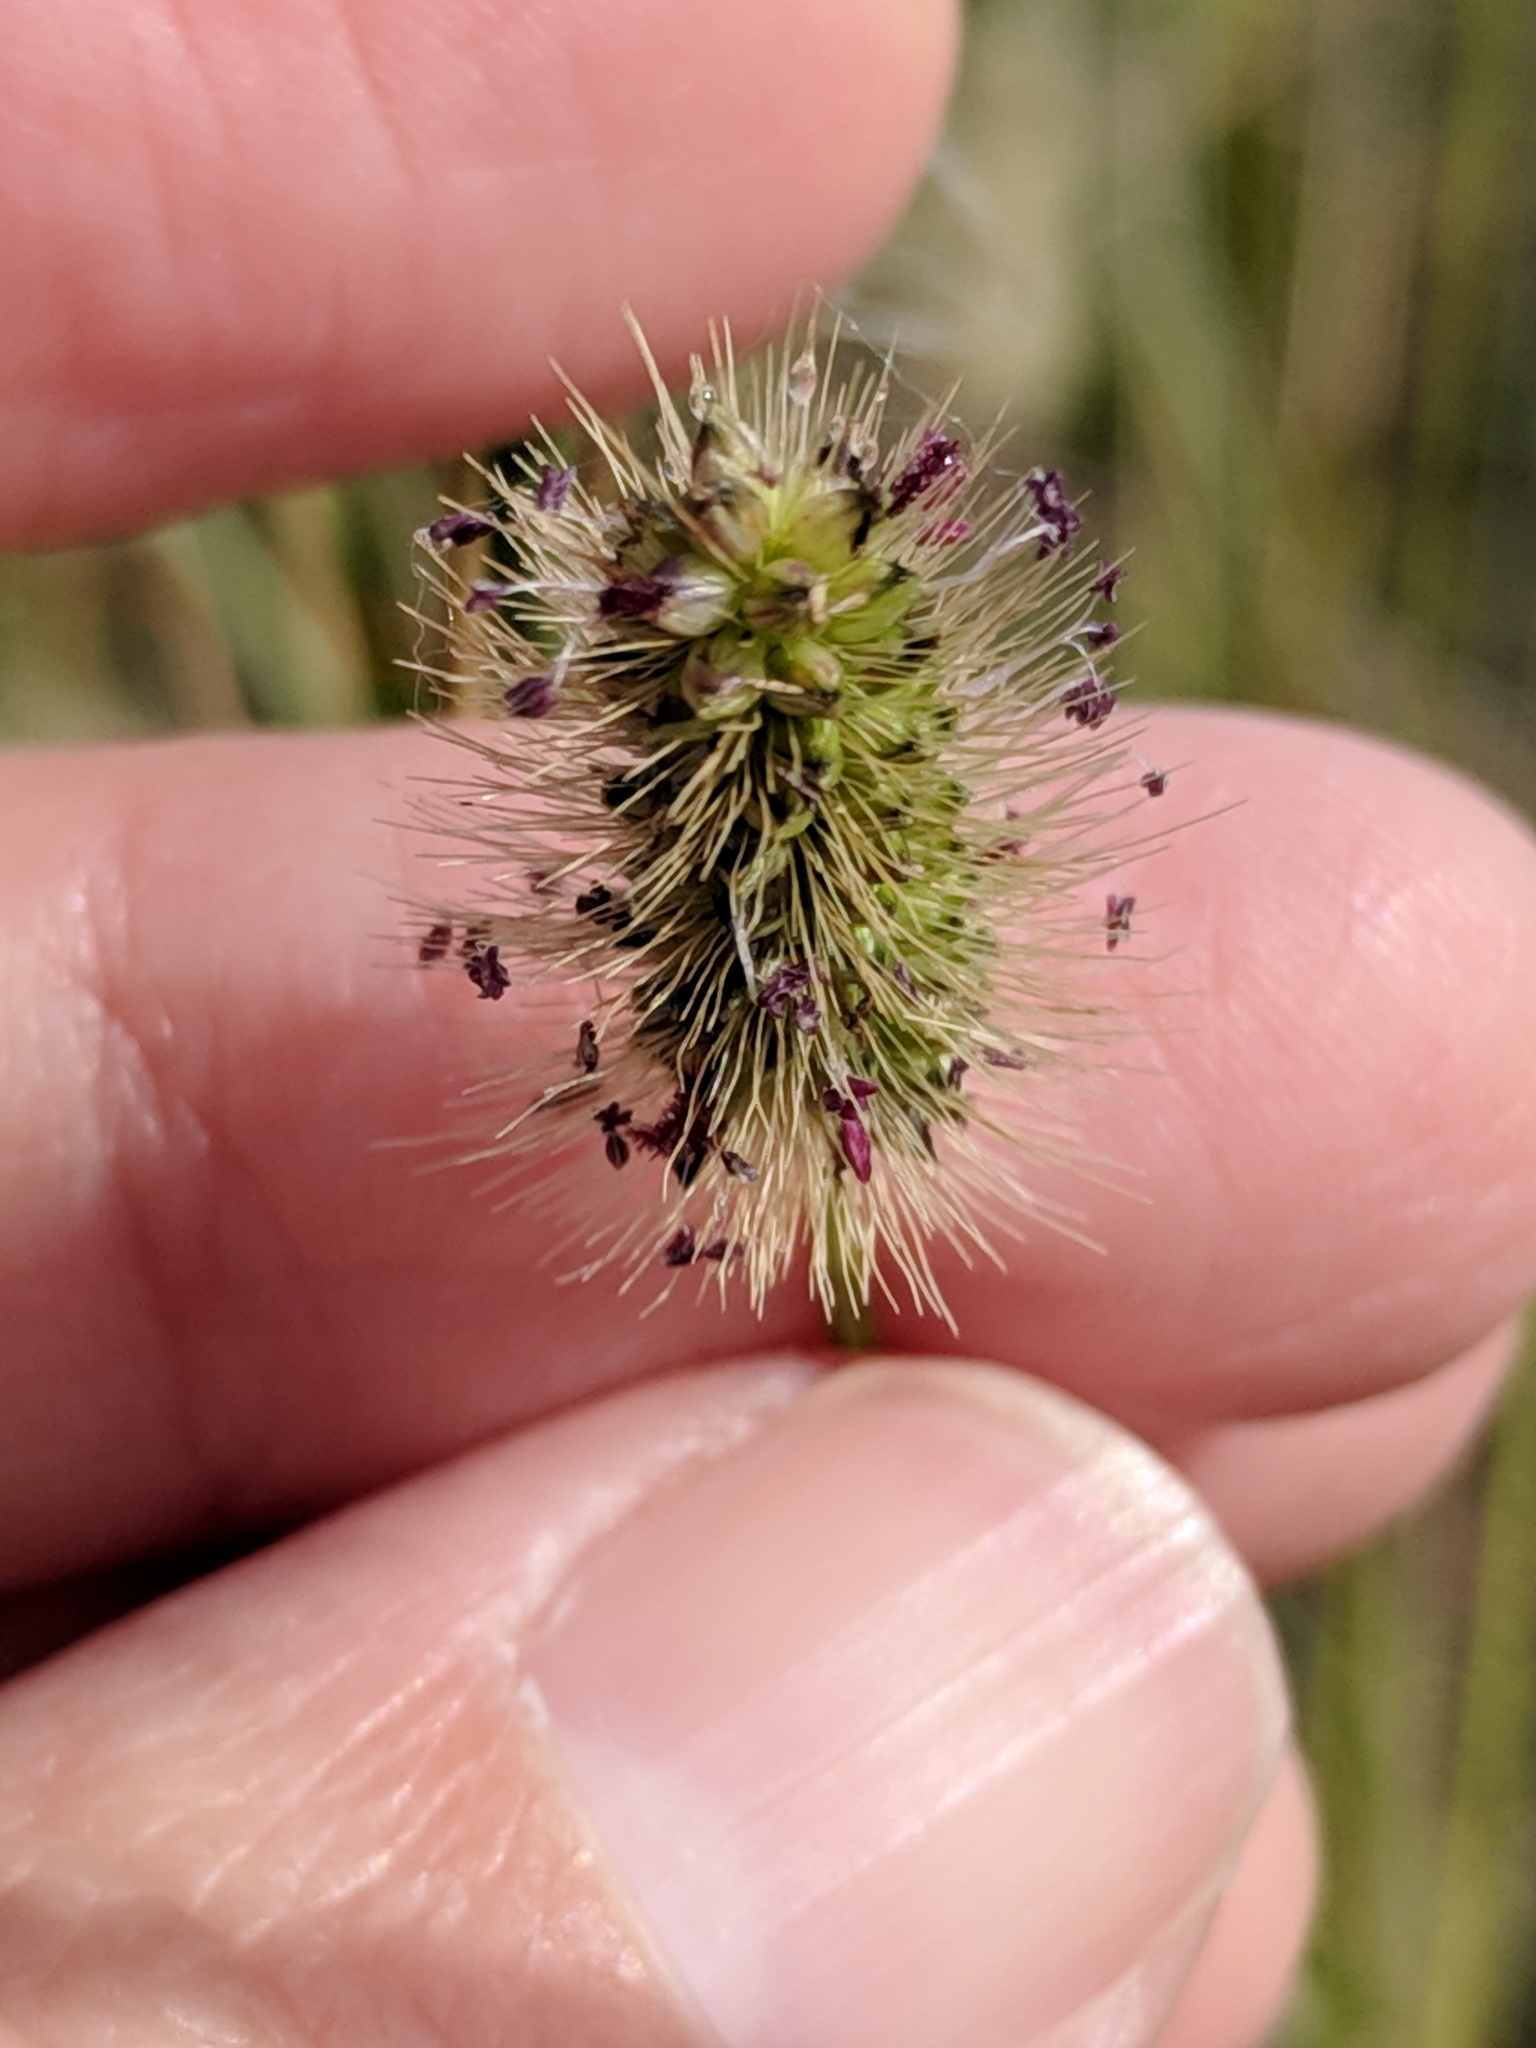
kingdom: Plantae
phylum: Tracheophyta
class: Liliopsida
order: Poales
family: Poaceae
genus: Setaria
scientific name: Setaria parviflora
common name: Knotroot bristle-grass
